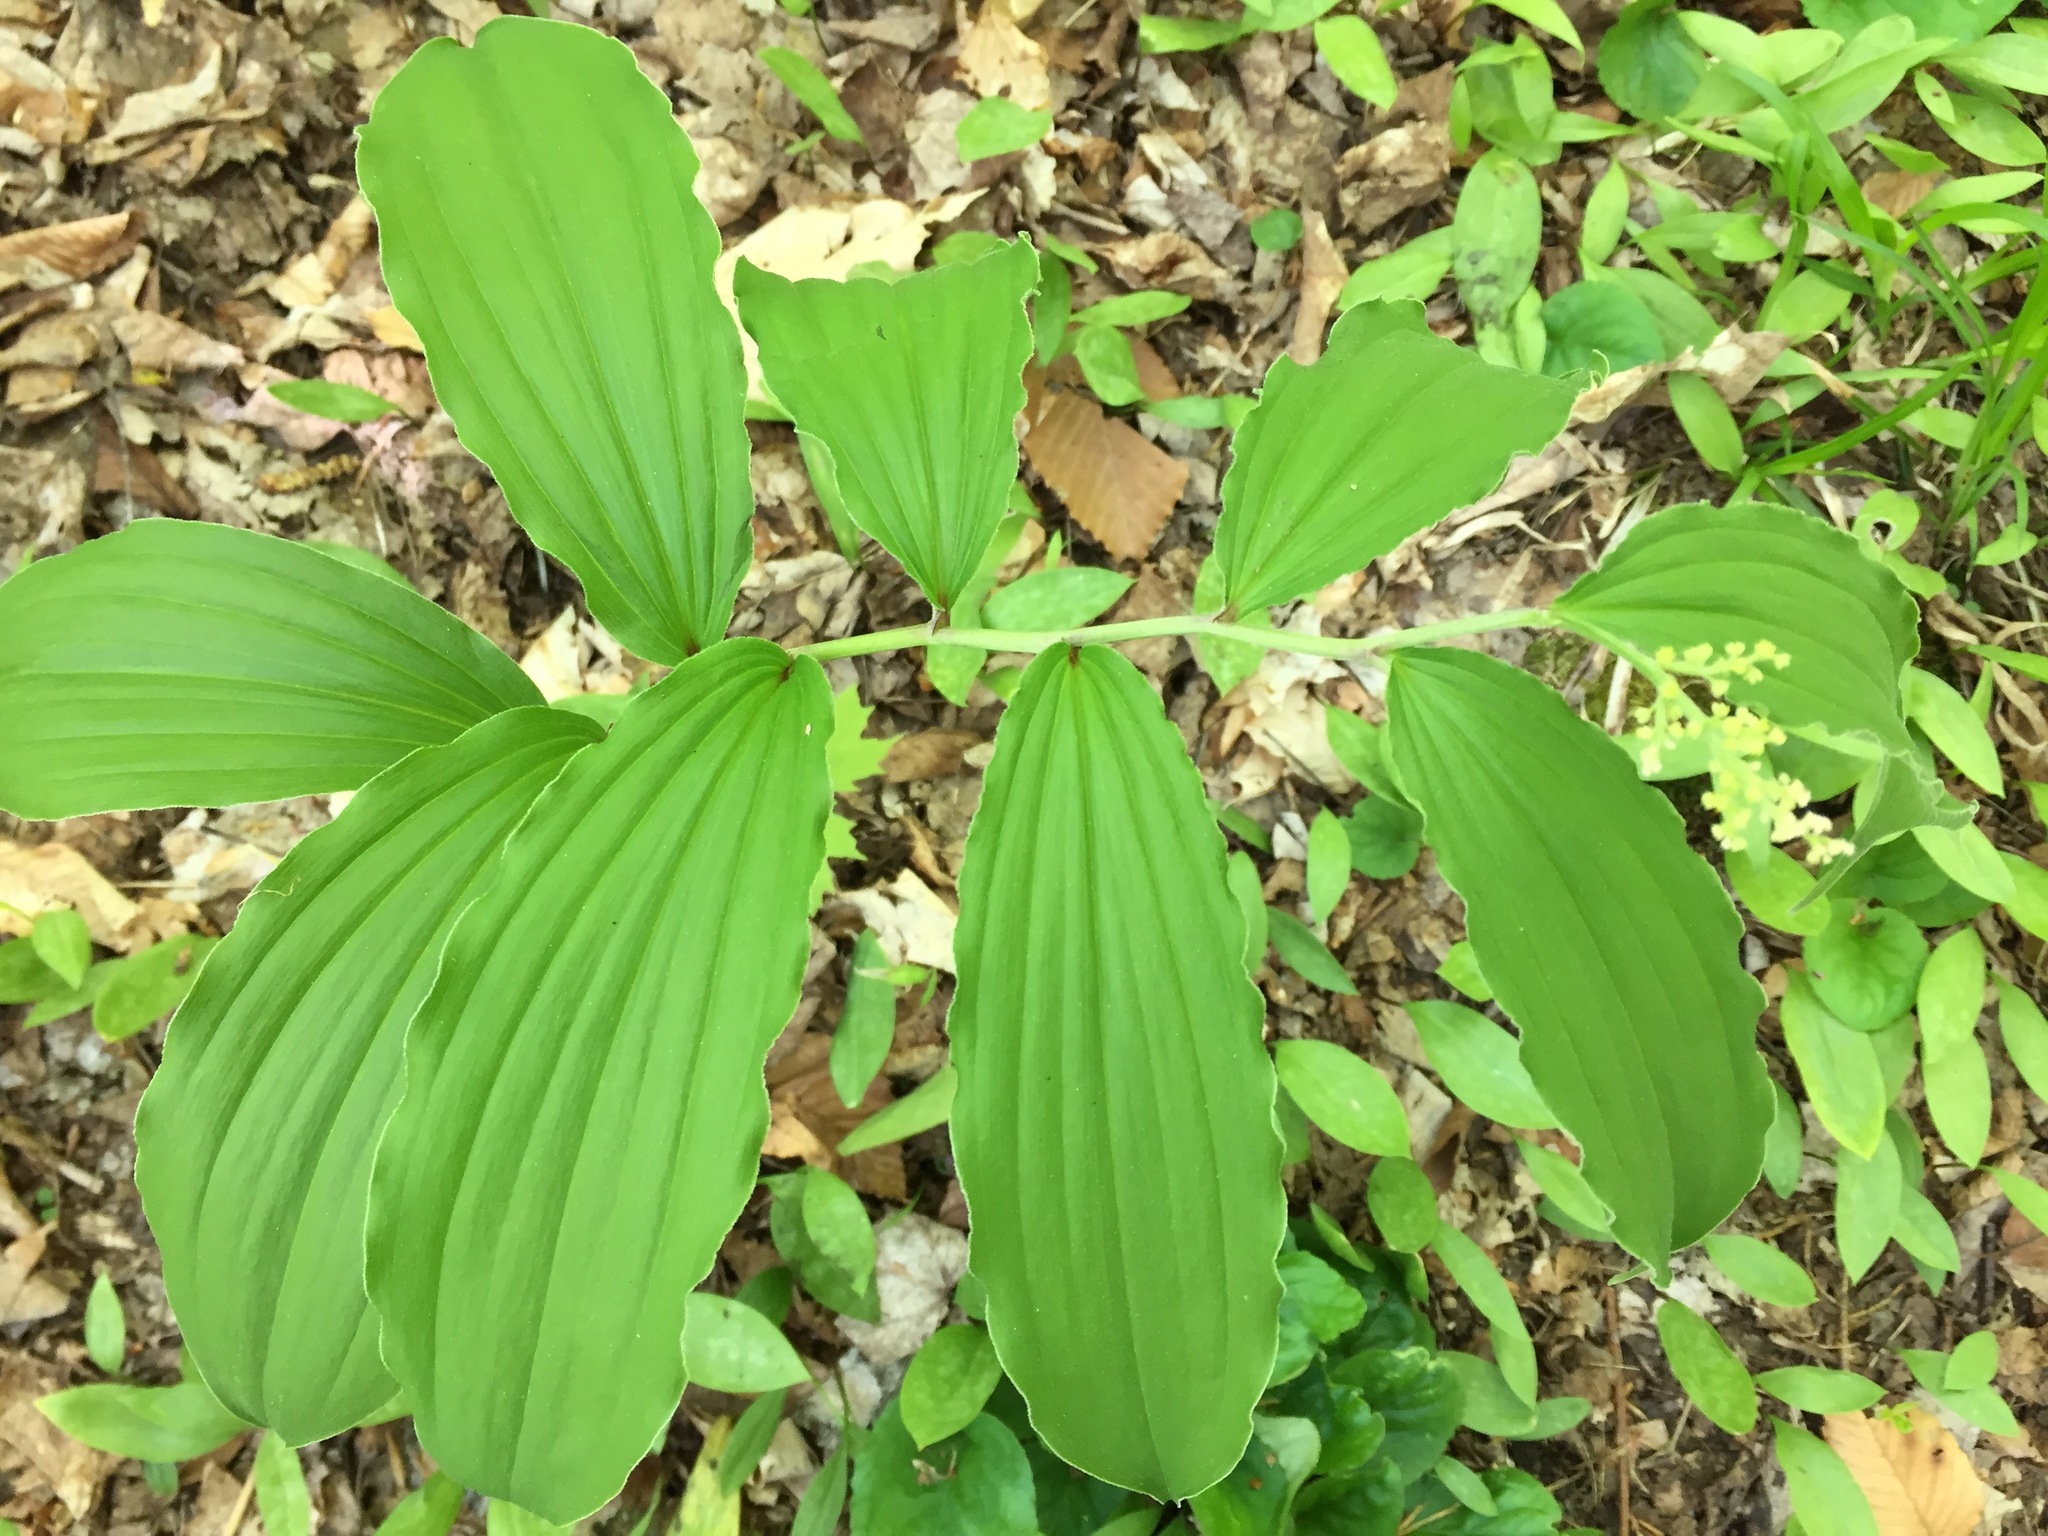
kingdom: Plantae
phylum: Tracheophyta
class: Liliopsida
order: Asparagales
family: Asparagaceae
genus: Maianthemum
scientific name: Maianthemum racemosum
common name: False spikenard
